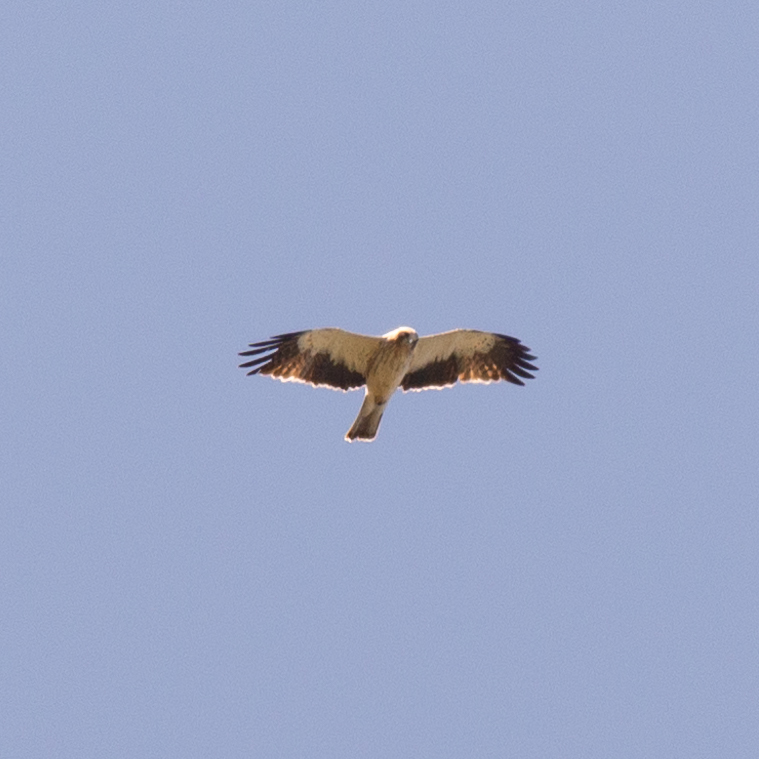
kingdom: Animalia
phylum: Chordata
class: Aves
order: Accipitriformes
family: Accipitridae
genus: Hieraaetus
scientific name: Hieraaetus pennatus
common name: Booted eagle
